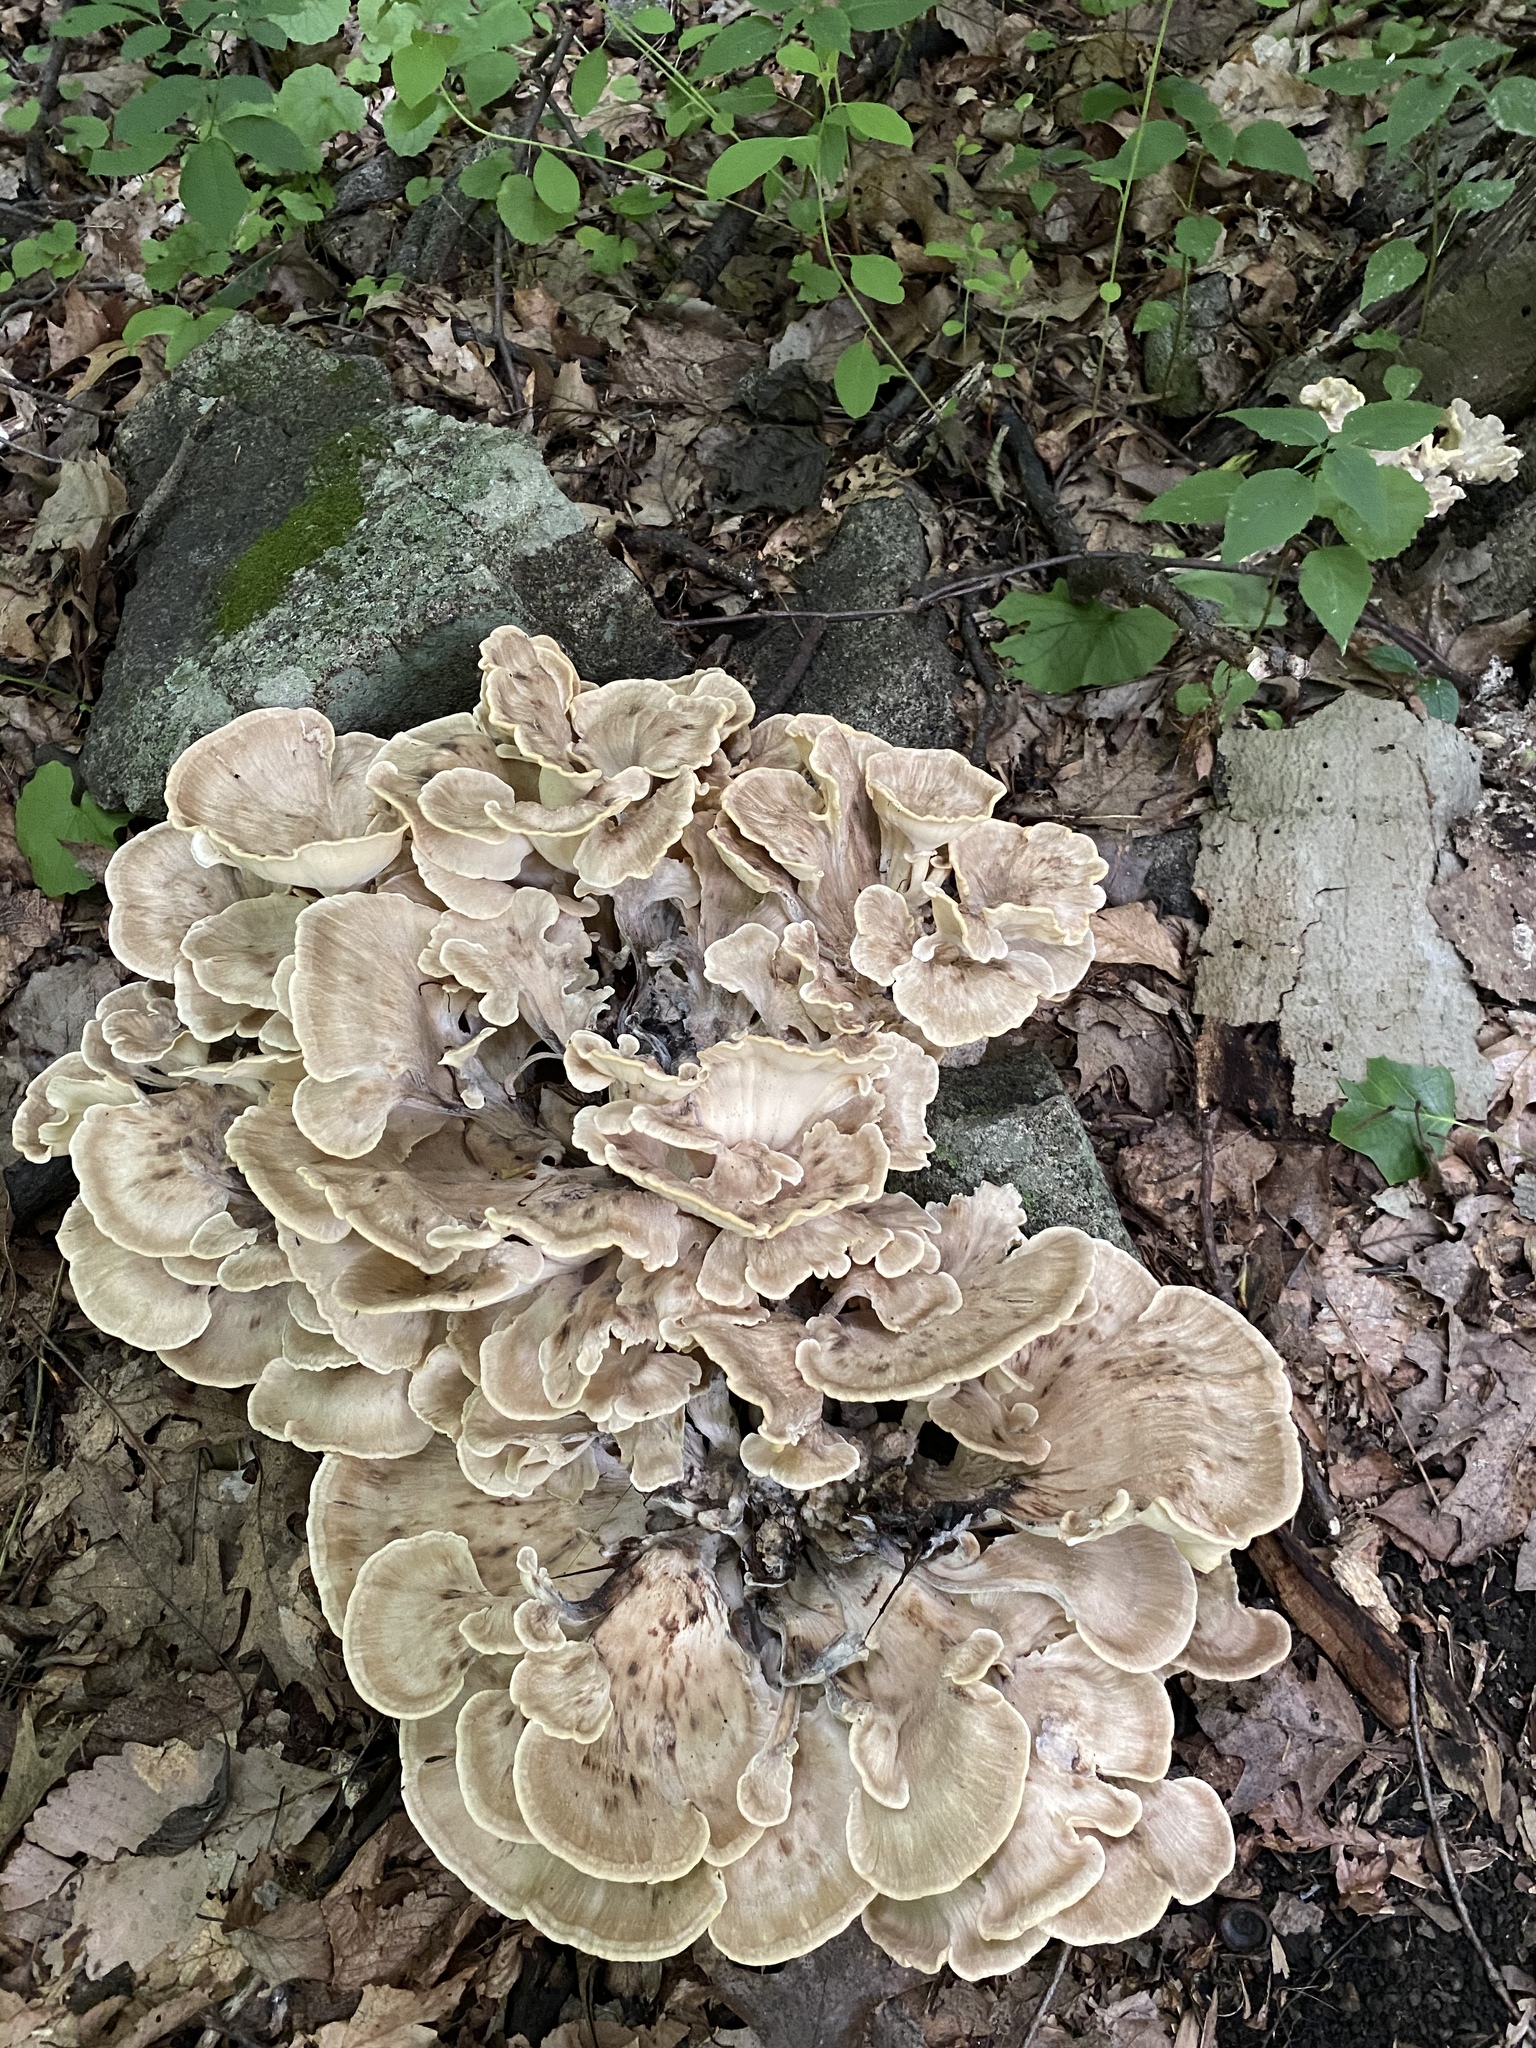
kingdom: Fungi
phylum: Basidiomycota
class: Agaricomycetes
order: Polyporales
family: Meripilaceae
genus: Meripilus
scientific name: Meripilus sumstinei
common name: Black-staining polypore
